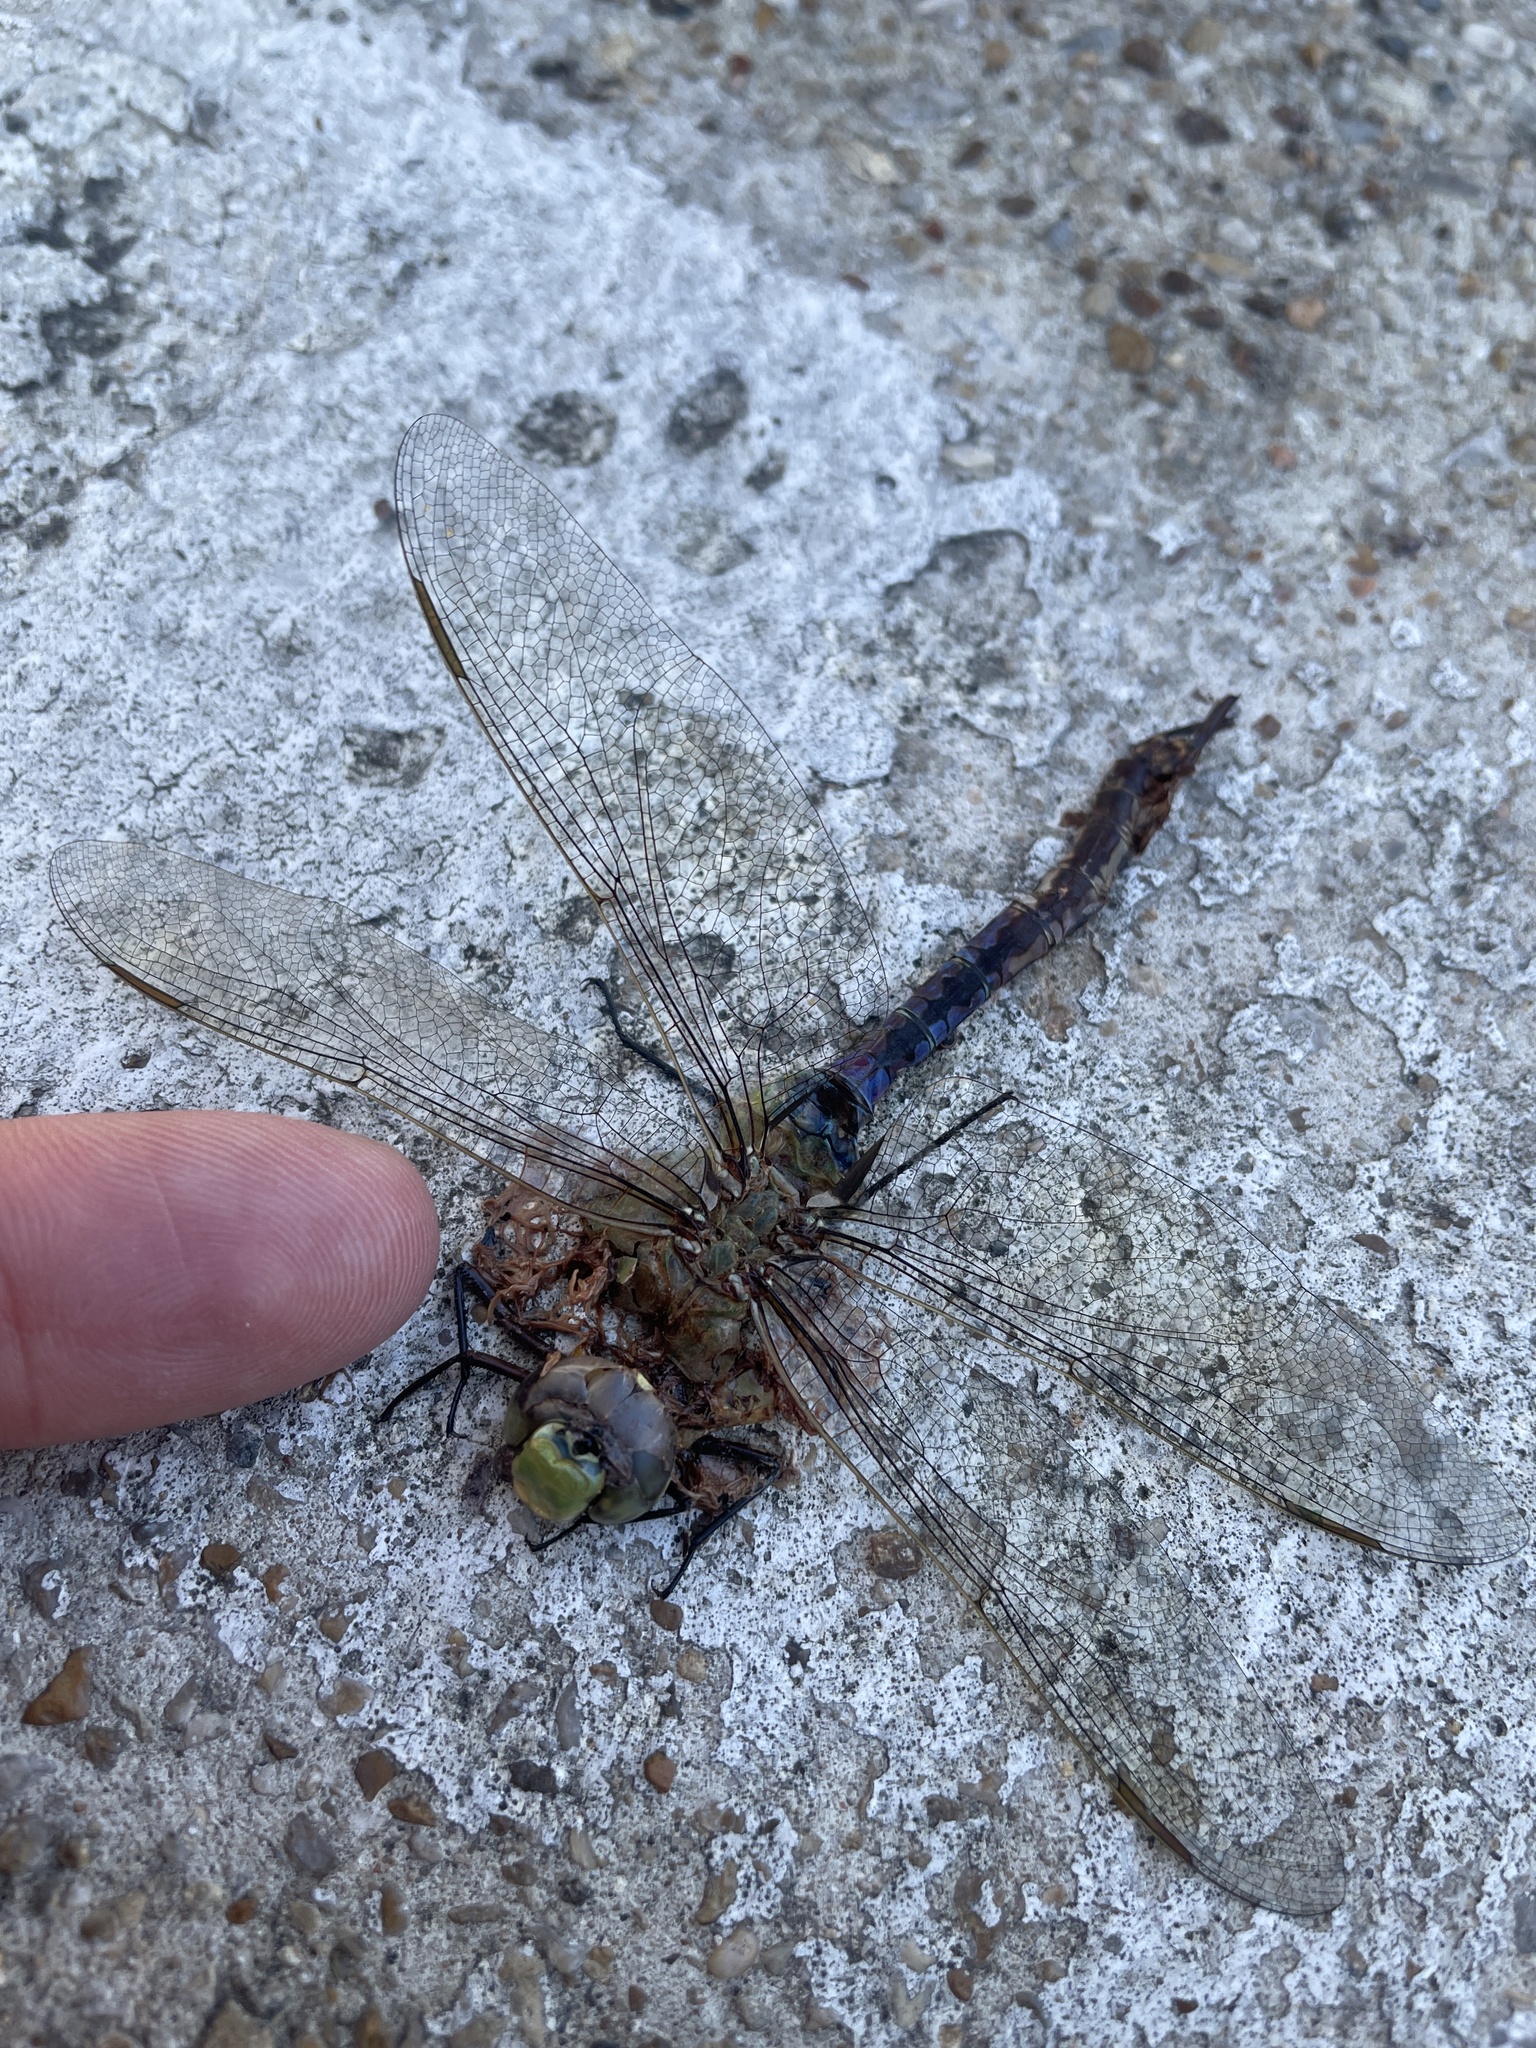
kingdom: Animalia
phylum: Arthropoda
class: Insecta
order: Odonata
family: Aeshnidae
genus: Anax
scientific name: Anax junius
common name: Common green darner
